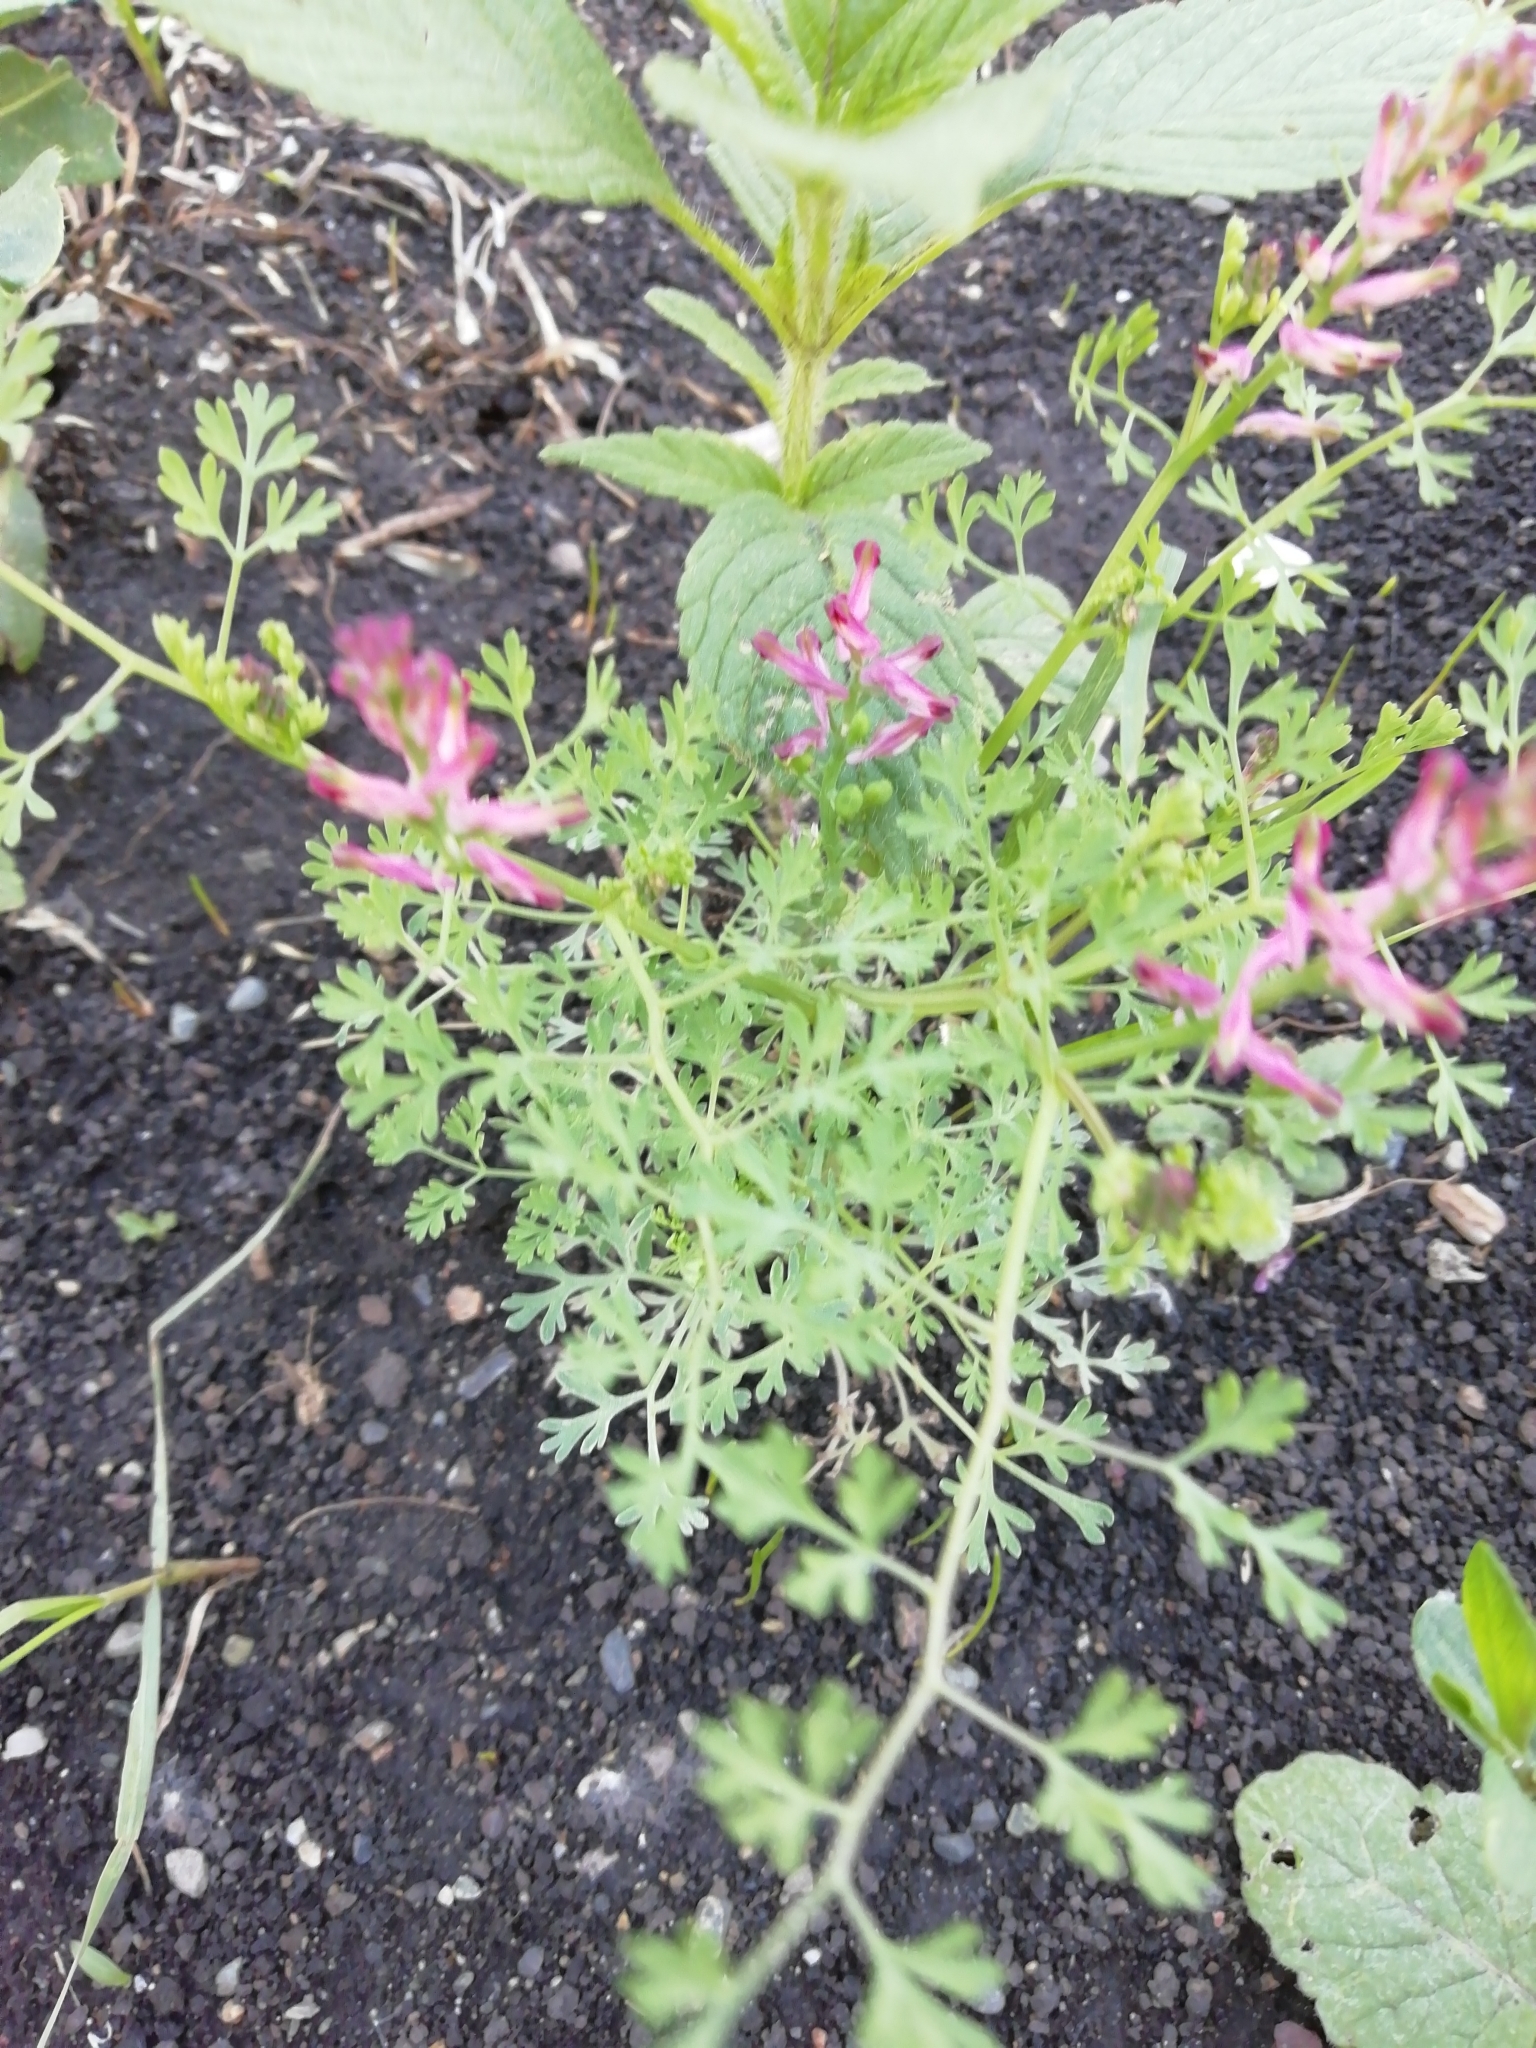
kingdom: Plantae
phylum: Tracheophyta
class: Magnoliopsida
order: Ranunculales
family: Papaveraceae
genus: Fumaria
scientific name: Fumaria officinalis
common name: Common fumitory
